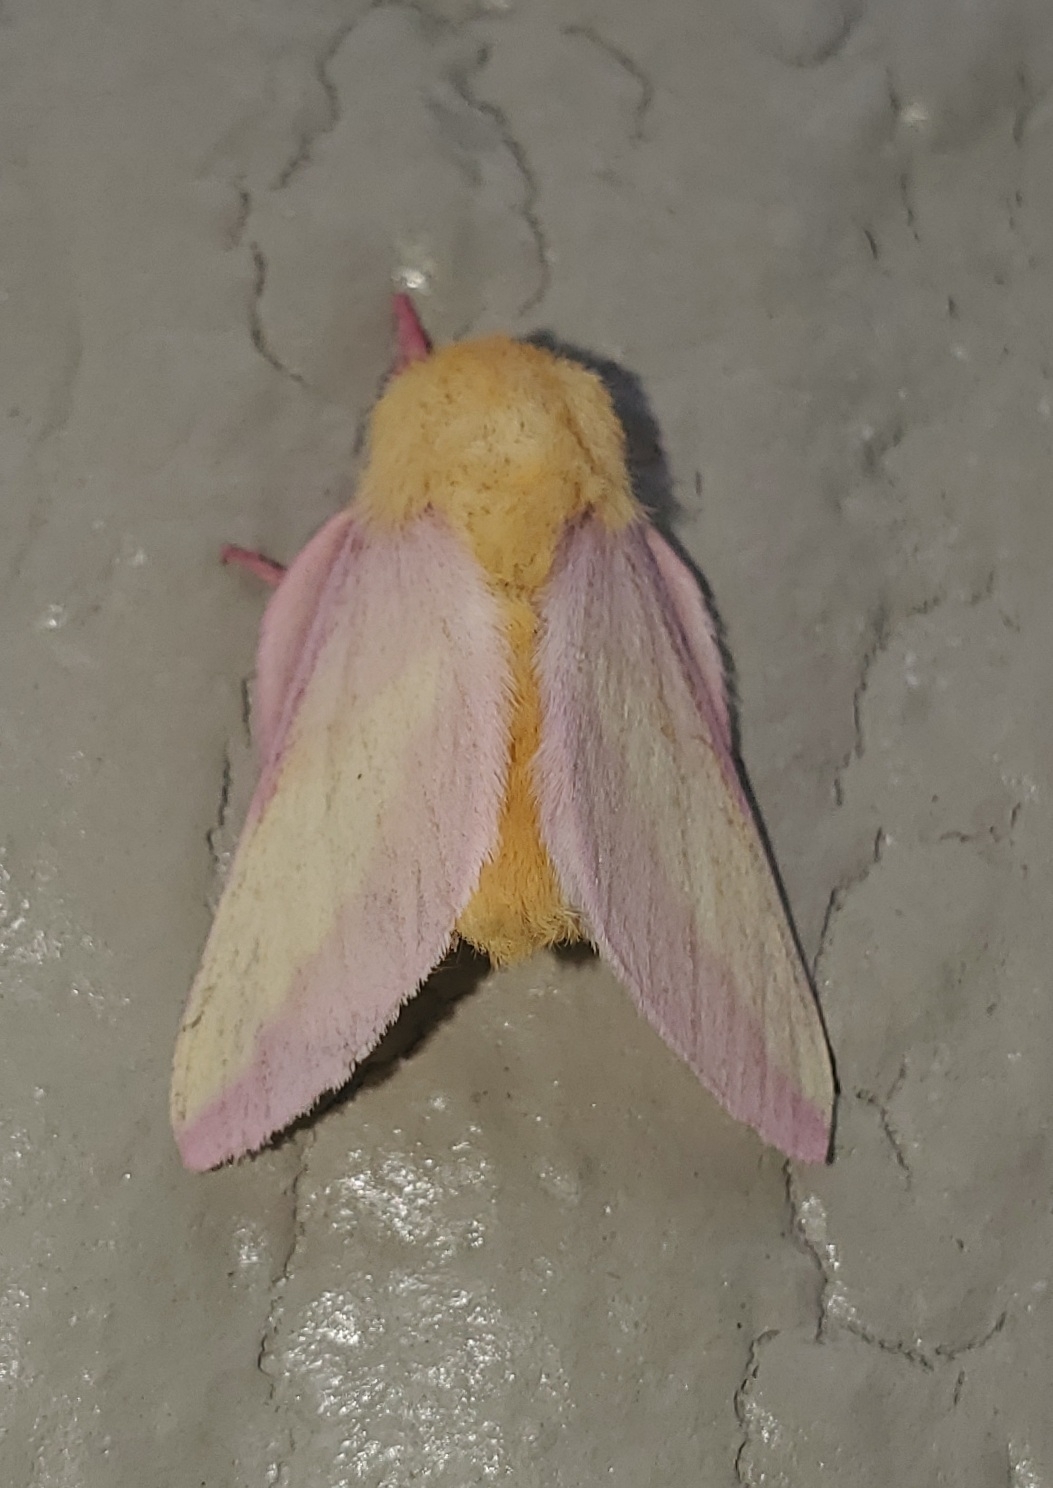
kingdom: Animalia
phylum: Arthropoda
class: Insecta
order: Lepidoptera
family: Saturniidae
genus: Dryocampa
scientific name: Dryocampa rubicunda
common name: Rosy maple moth
